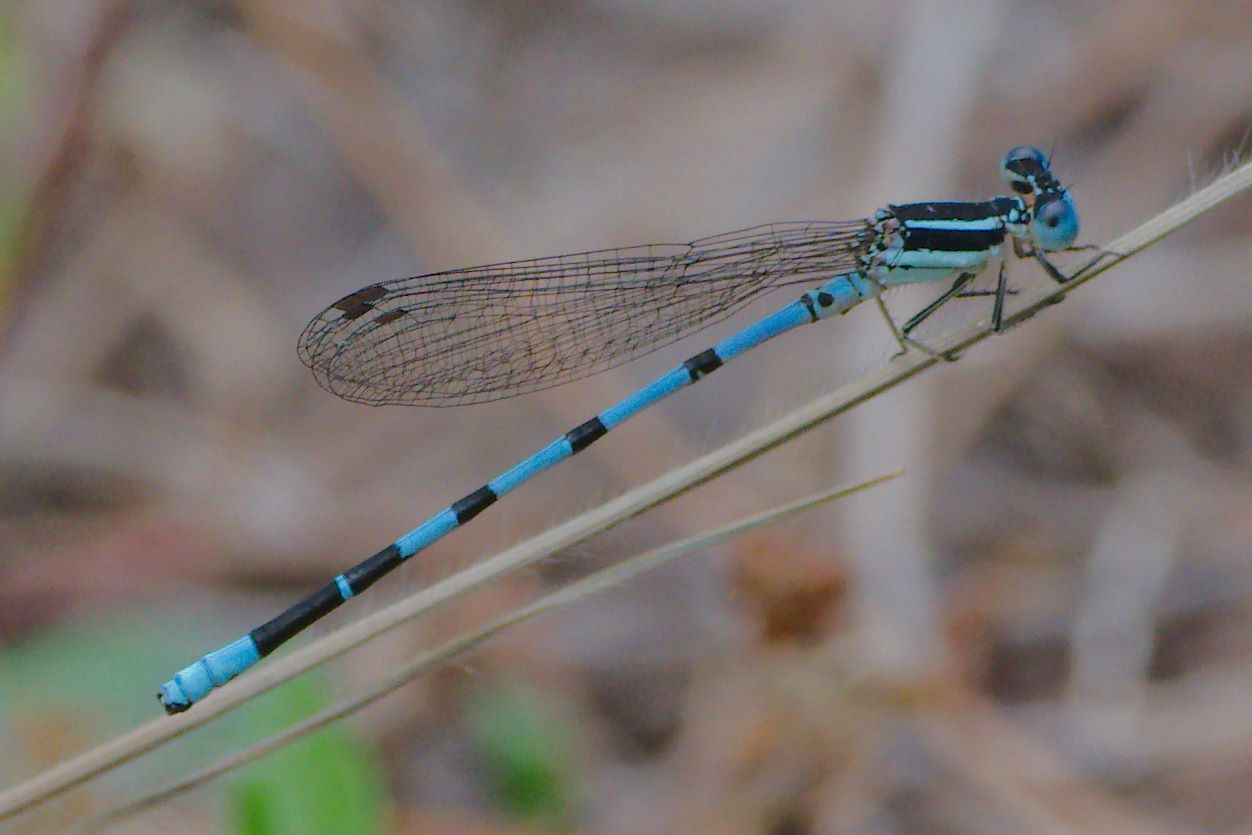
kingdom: Animalia
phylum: Arthropoda
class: Insecta
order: Odonata
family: Coenagrionidae
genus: Argia
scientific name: Argia bipunctulata
